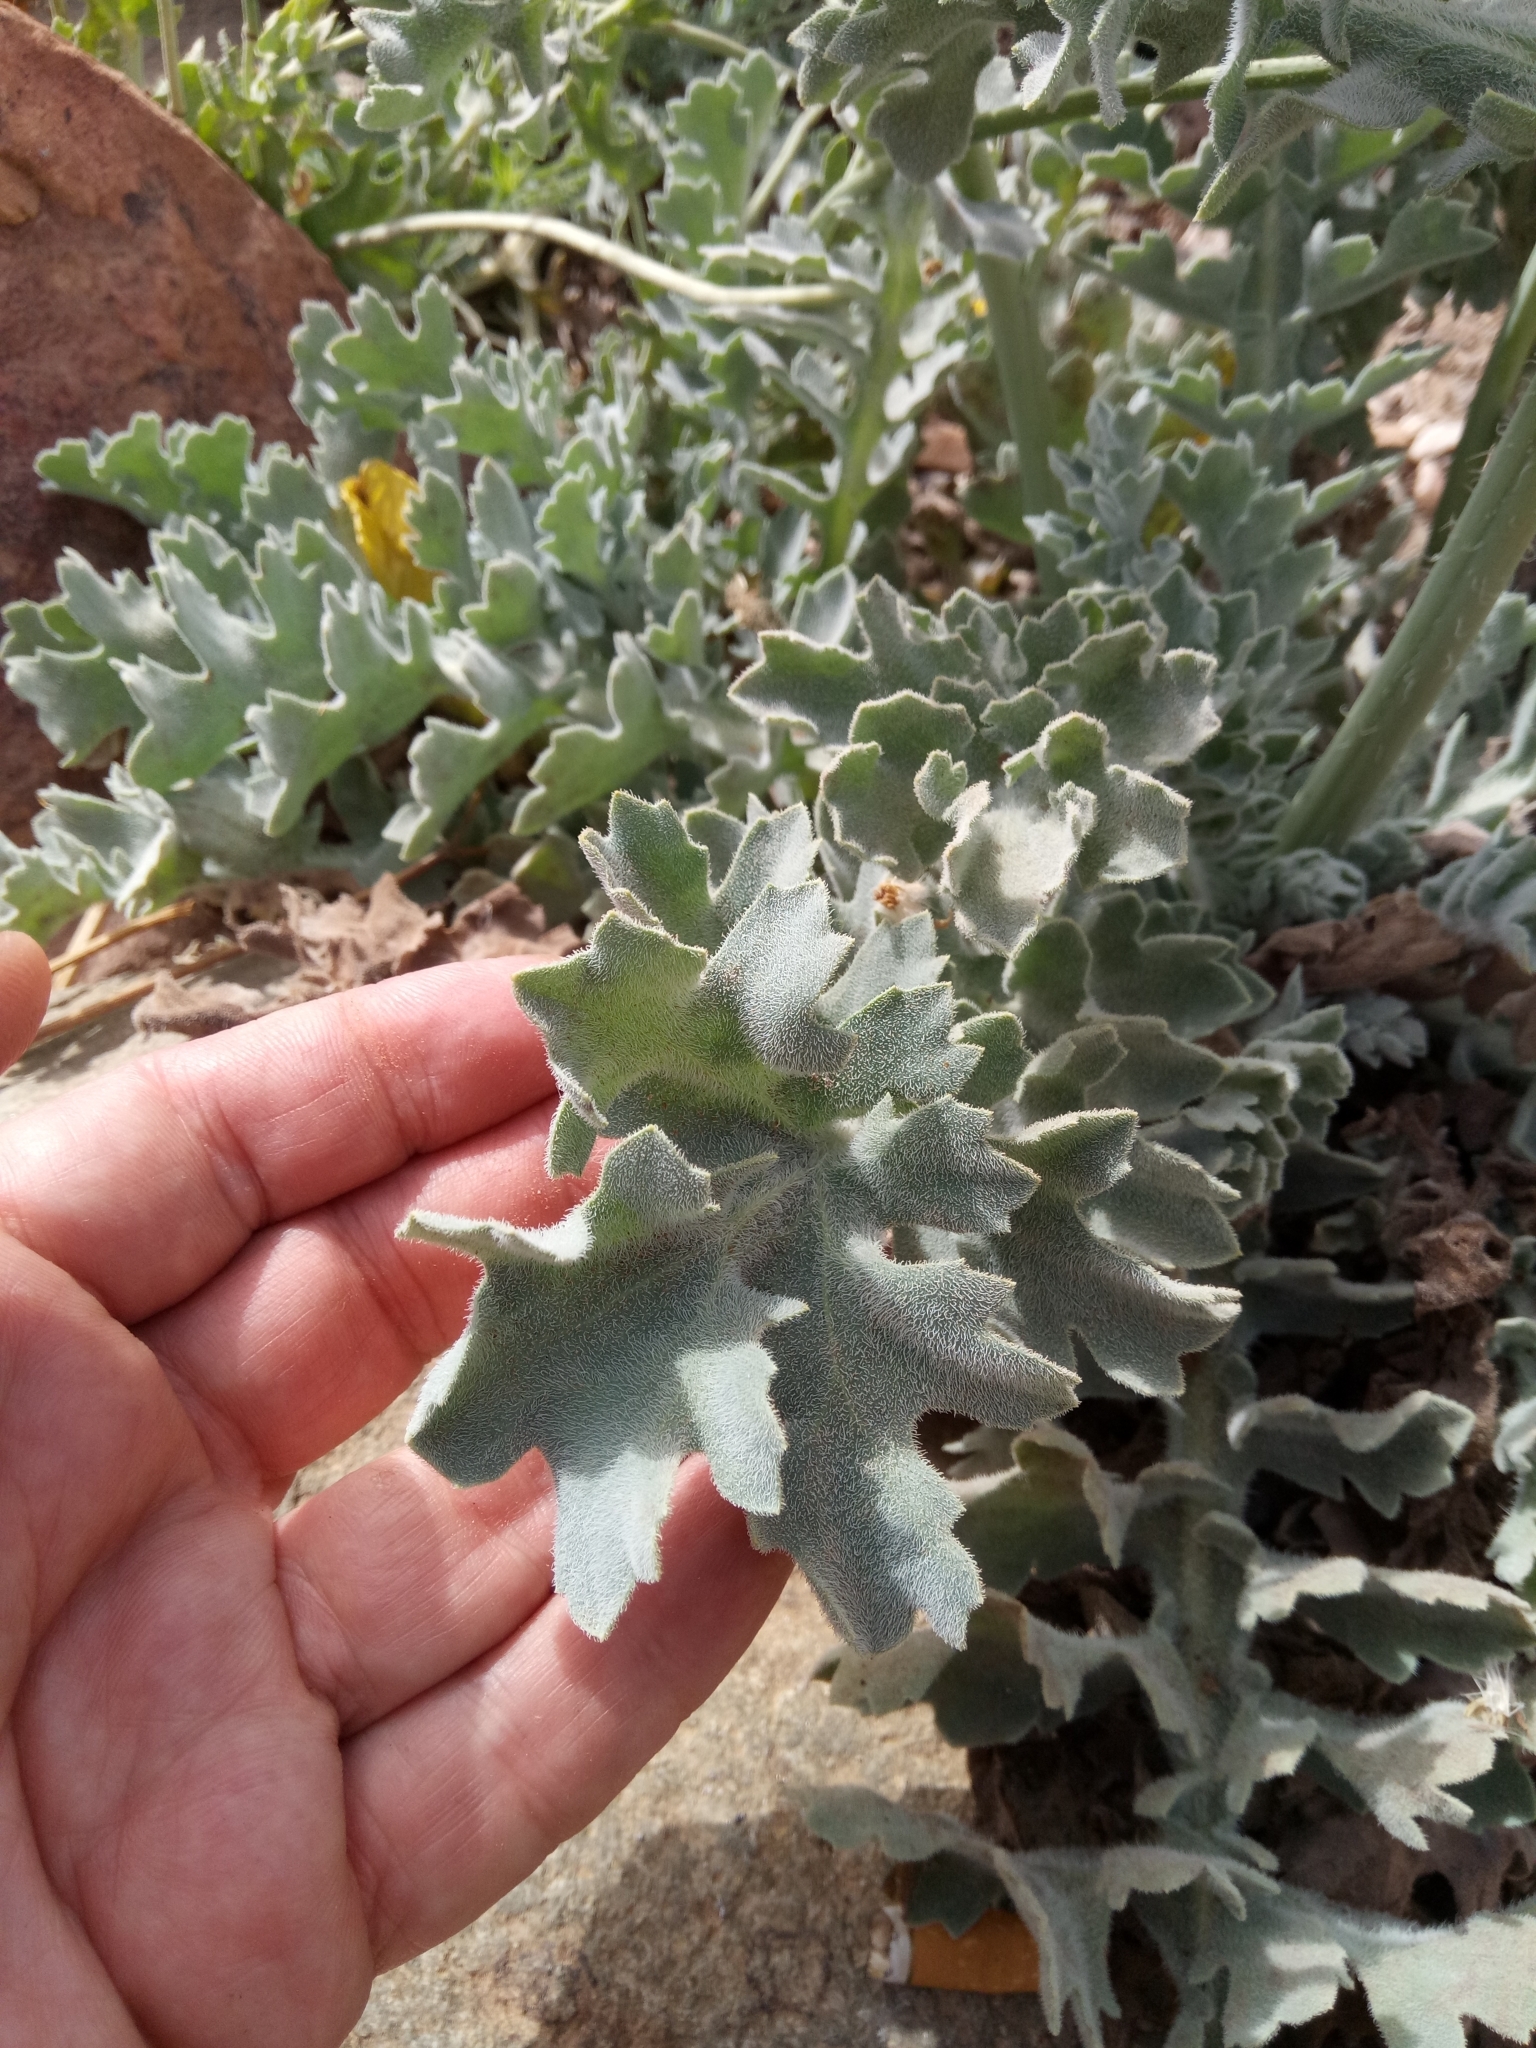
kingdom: Plantae
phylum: Tracheophyta
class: Magnoliopsida
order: Ranunculales
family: Papaveraceae
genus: Glaucium
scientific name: Glaucium flavum
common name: Yellow horned-poppy
